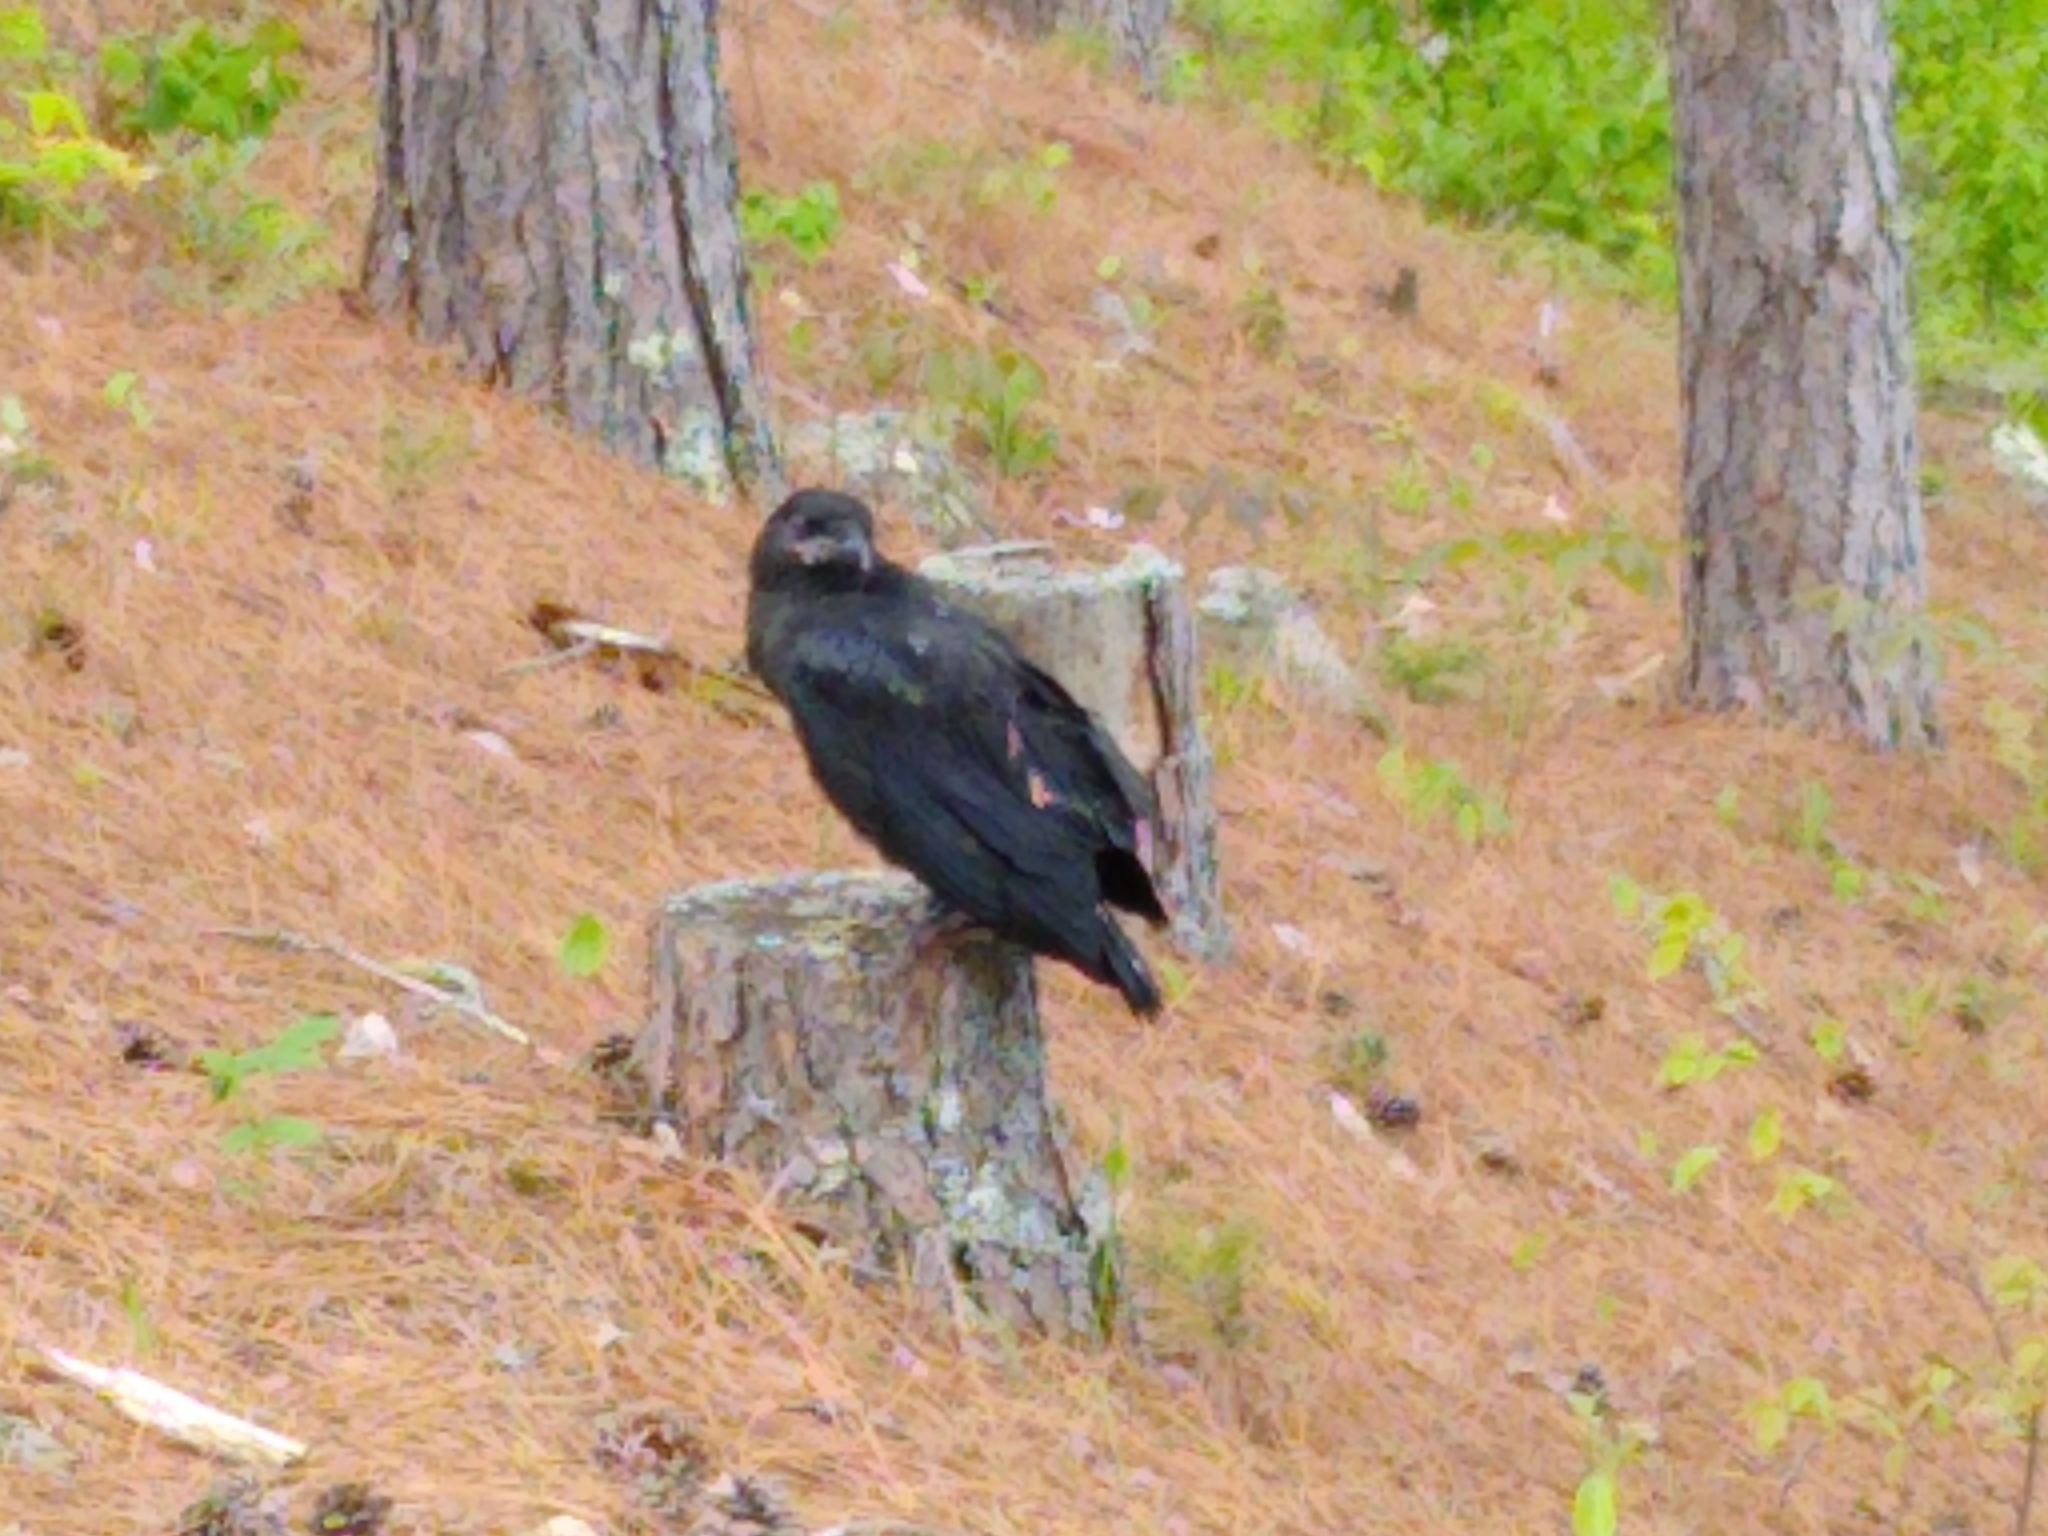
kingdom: Animalia
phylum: Chordata
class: Aves
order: Passeriformes
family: Corvidae
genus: Corvus
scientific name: Corvus corax
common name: Common raven
